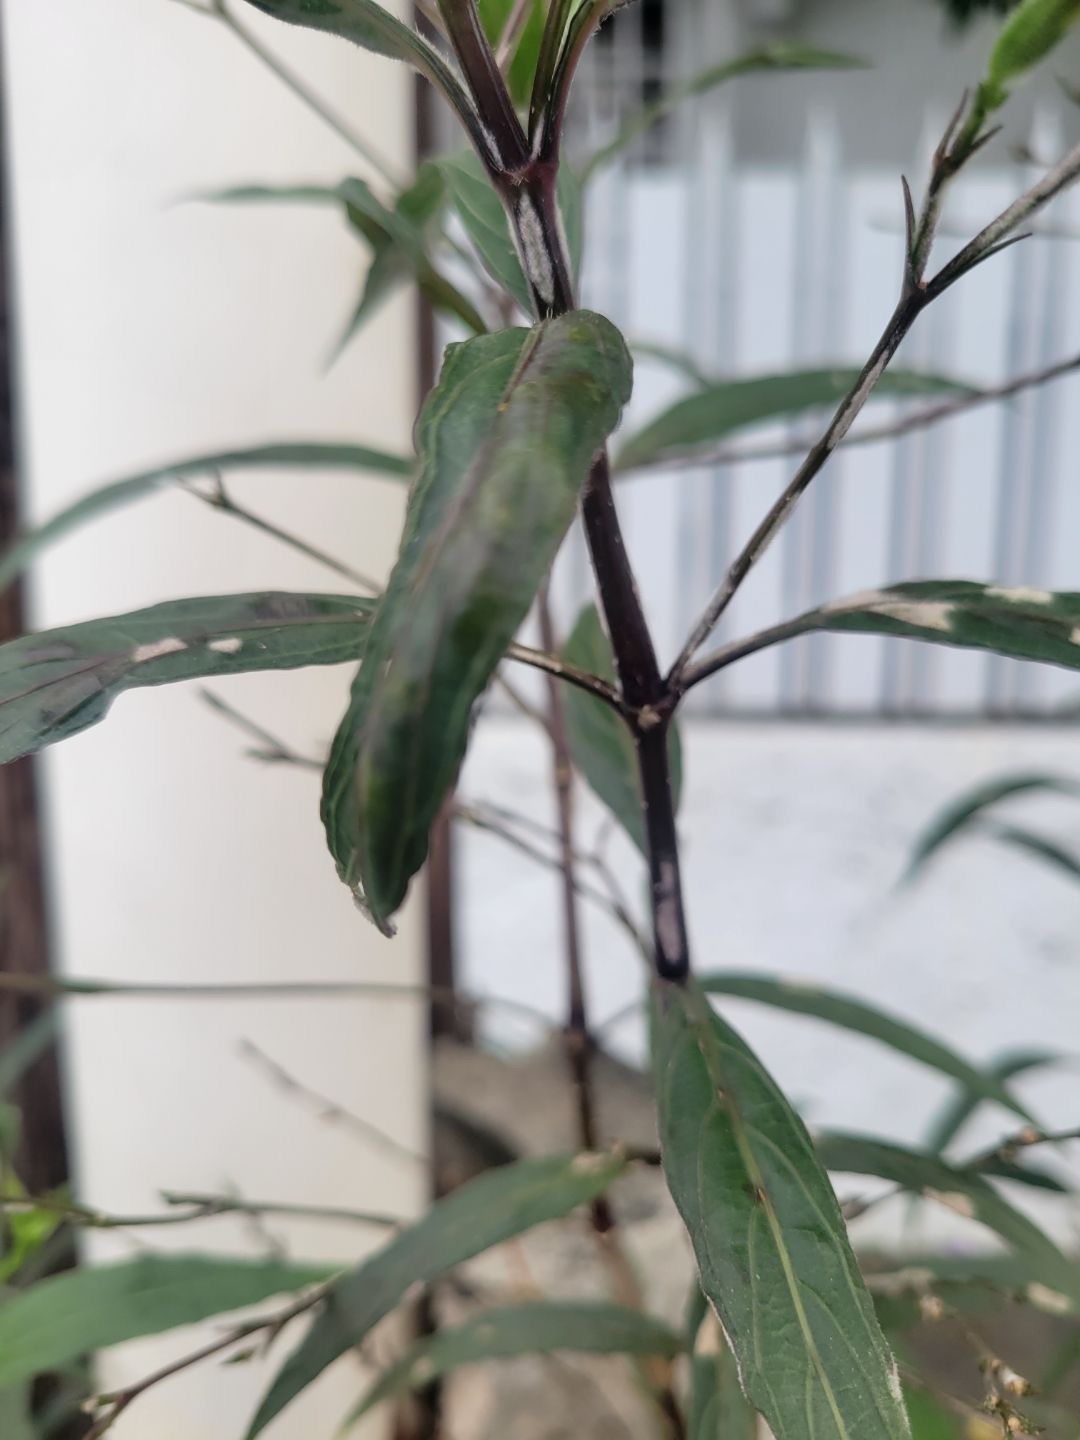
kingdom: Plantae
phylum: Tracheophyta
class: Magnoliopsida
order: Lamiales
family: Acanthaceae
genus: Ruellia
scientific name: Ruellia simplex
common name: Softseed wild petunia
